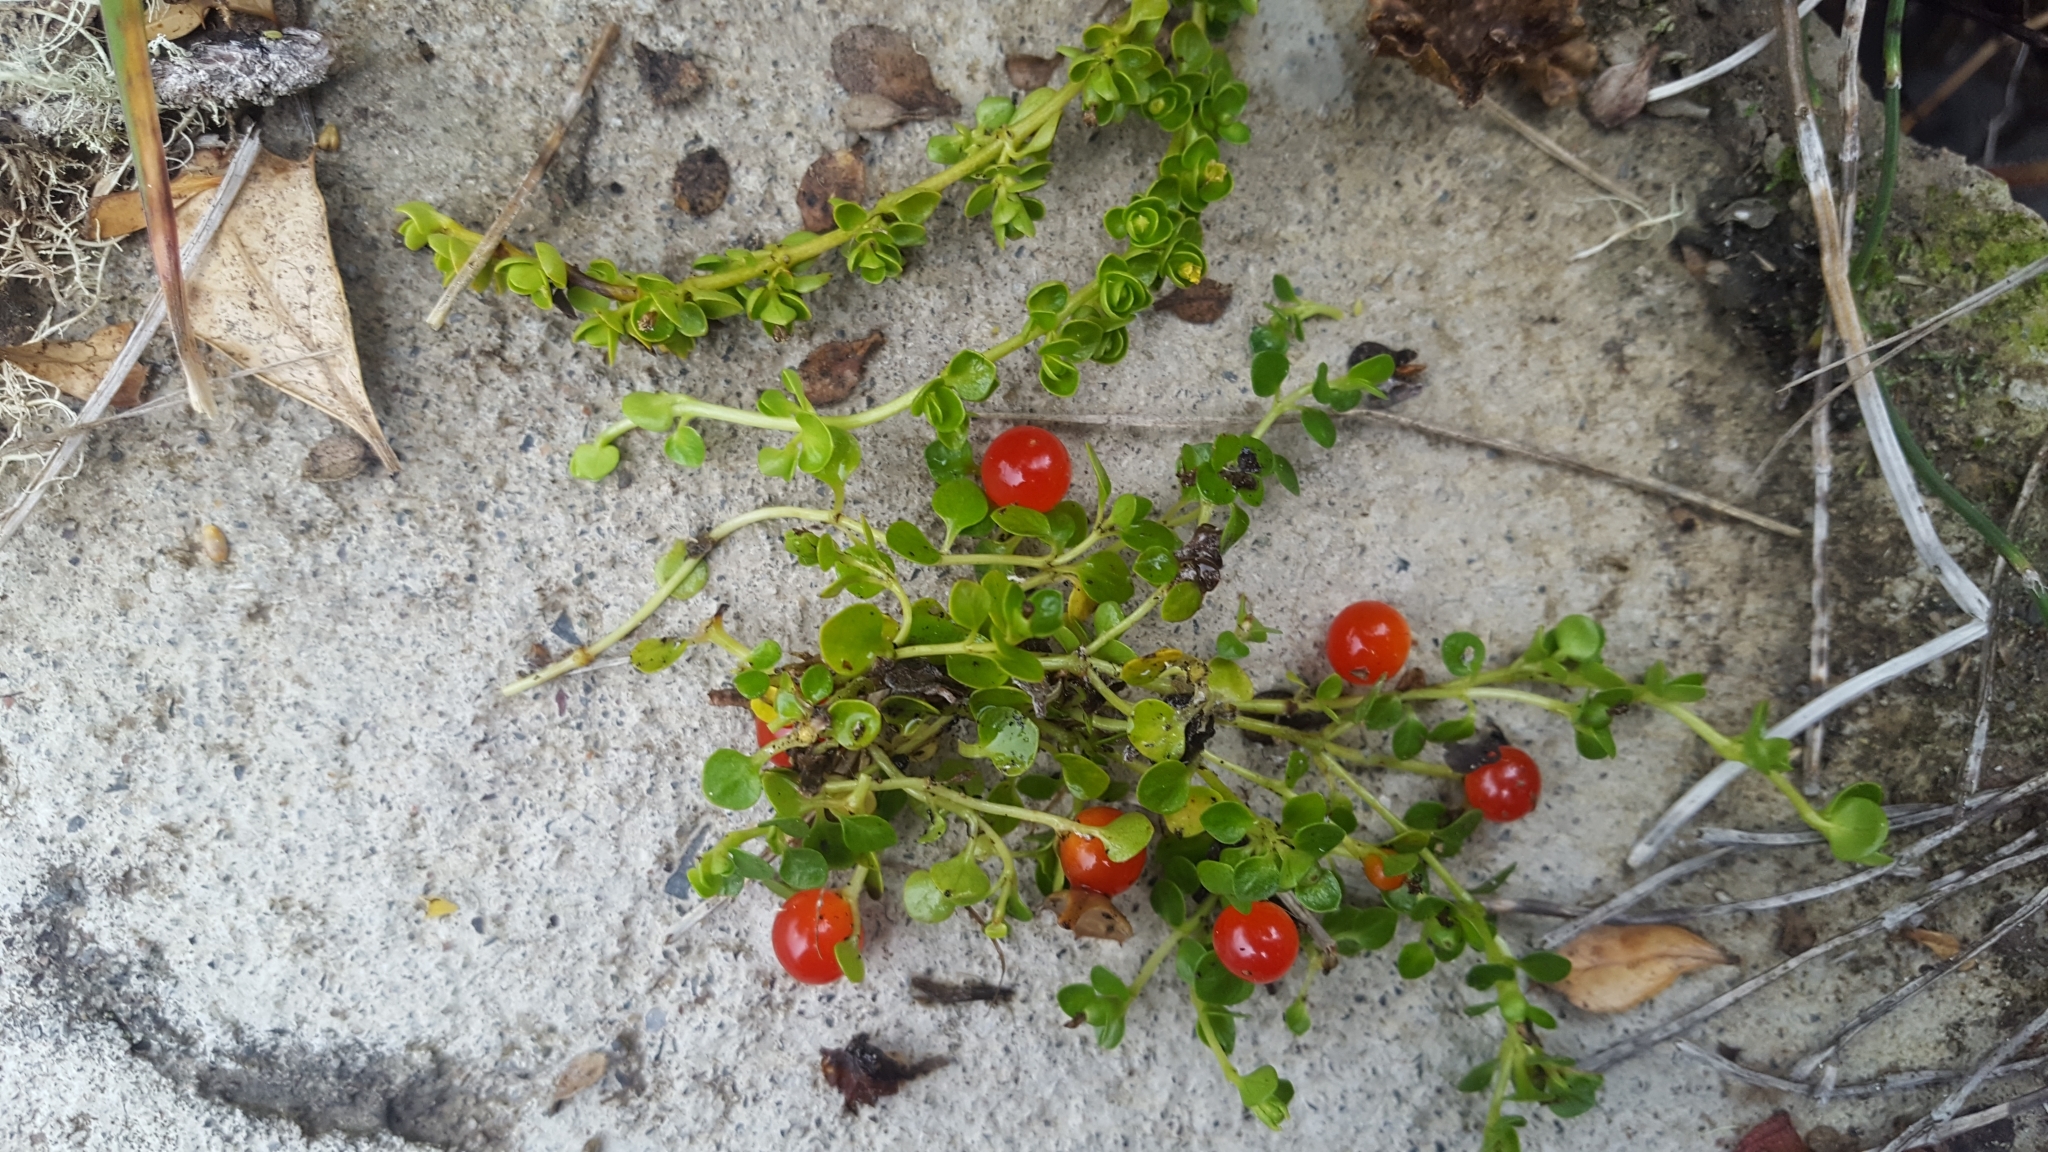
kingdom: Plantae
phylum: Tracheophyta
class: Magnoliopsida
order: Gentianales
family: Rubiaceae
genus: Nertera
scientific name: Nertera granadensis
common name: Beadplant
